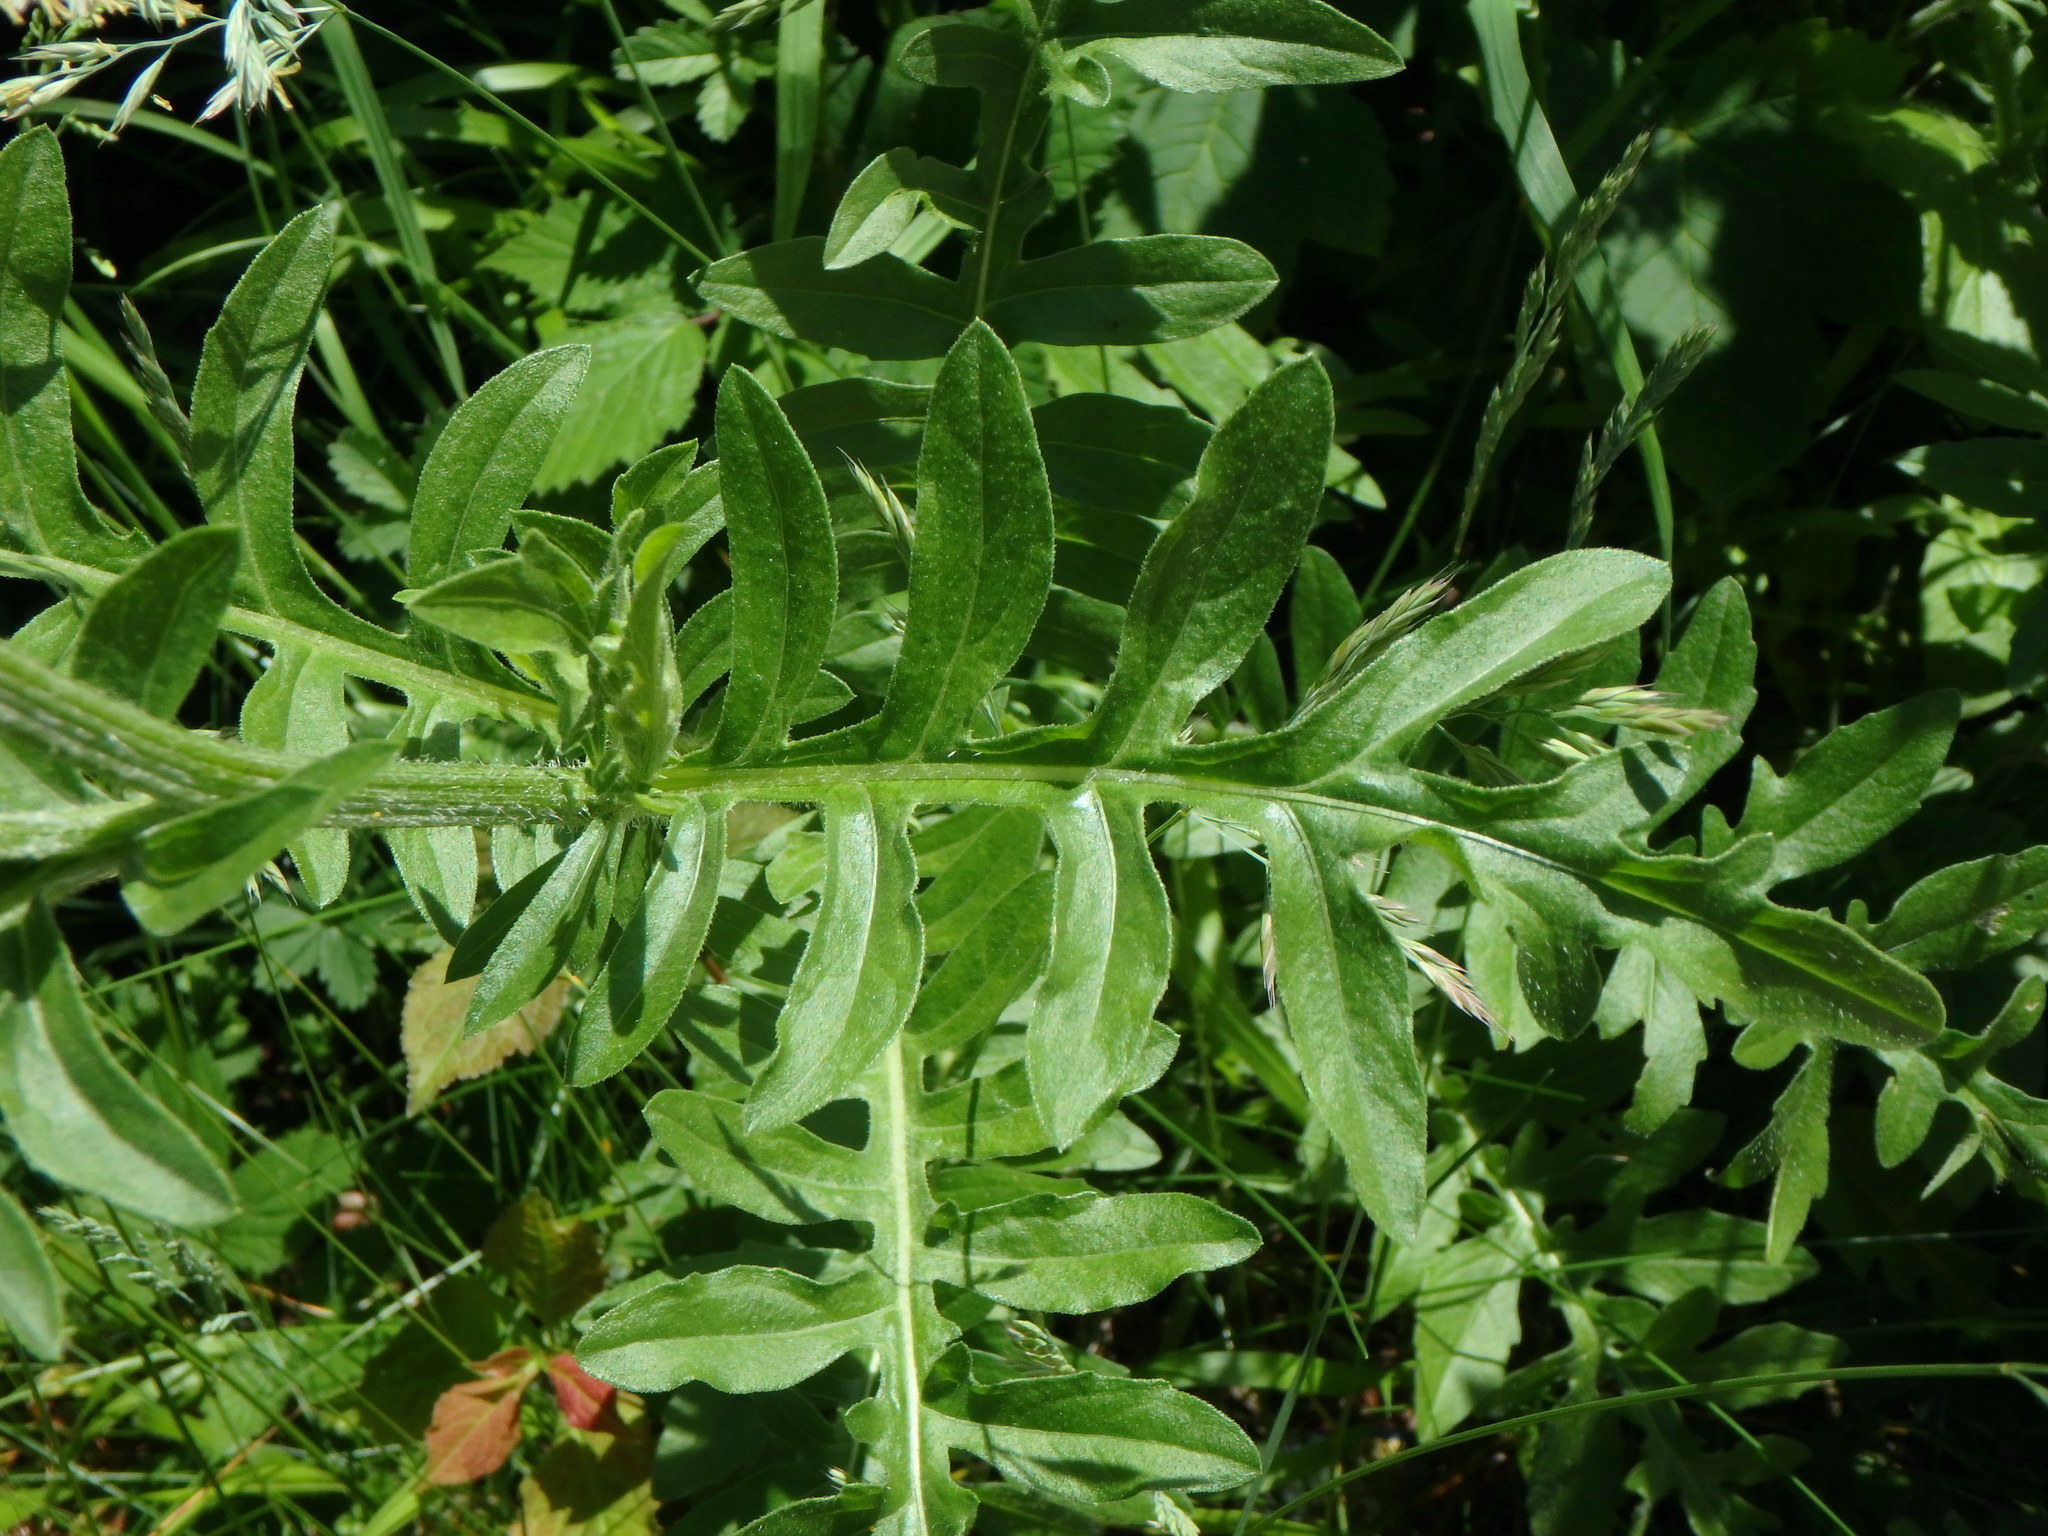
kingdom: Plantae
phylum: Tracheophyta
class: Magnoliopsida
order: Asterales
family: Asteraceae
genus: Centaurea
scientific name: Centaurea scabiosa
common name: Greater knapweed
